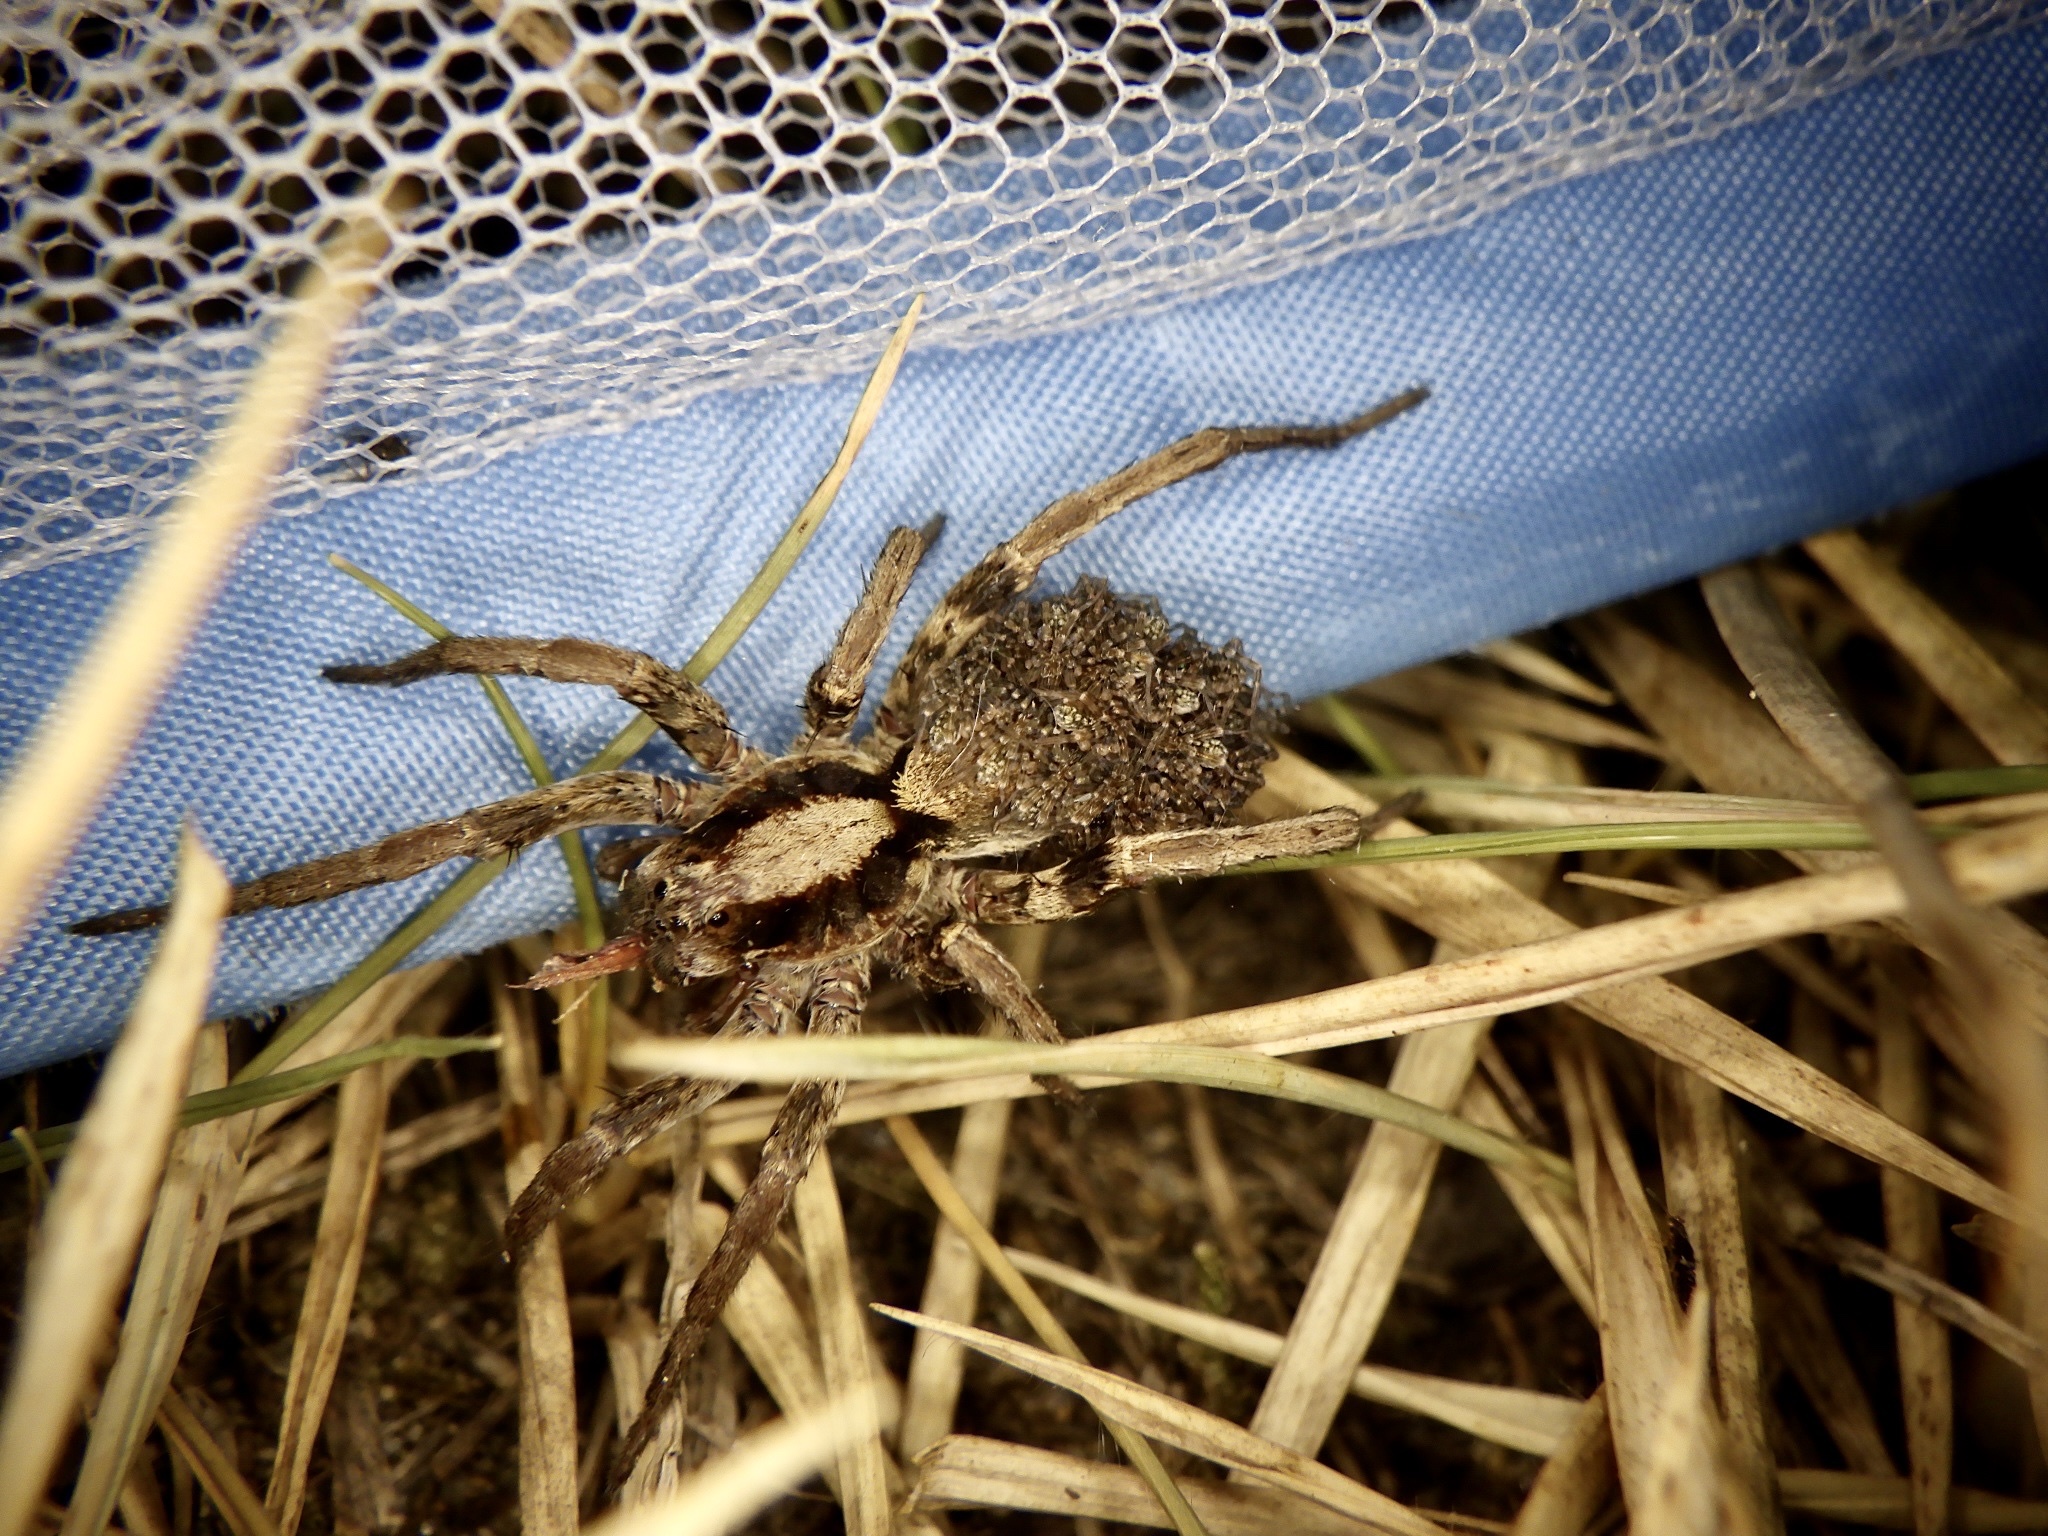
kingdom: Animalia
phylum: Arthropoda
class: Arachnida
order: Araneae
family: Lycosidae
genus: Lycosa
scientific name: Lycosa coelestis
